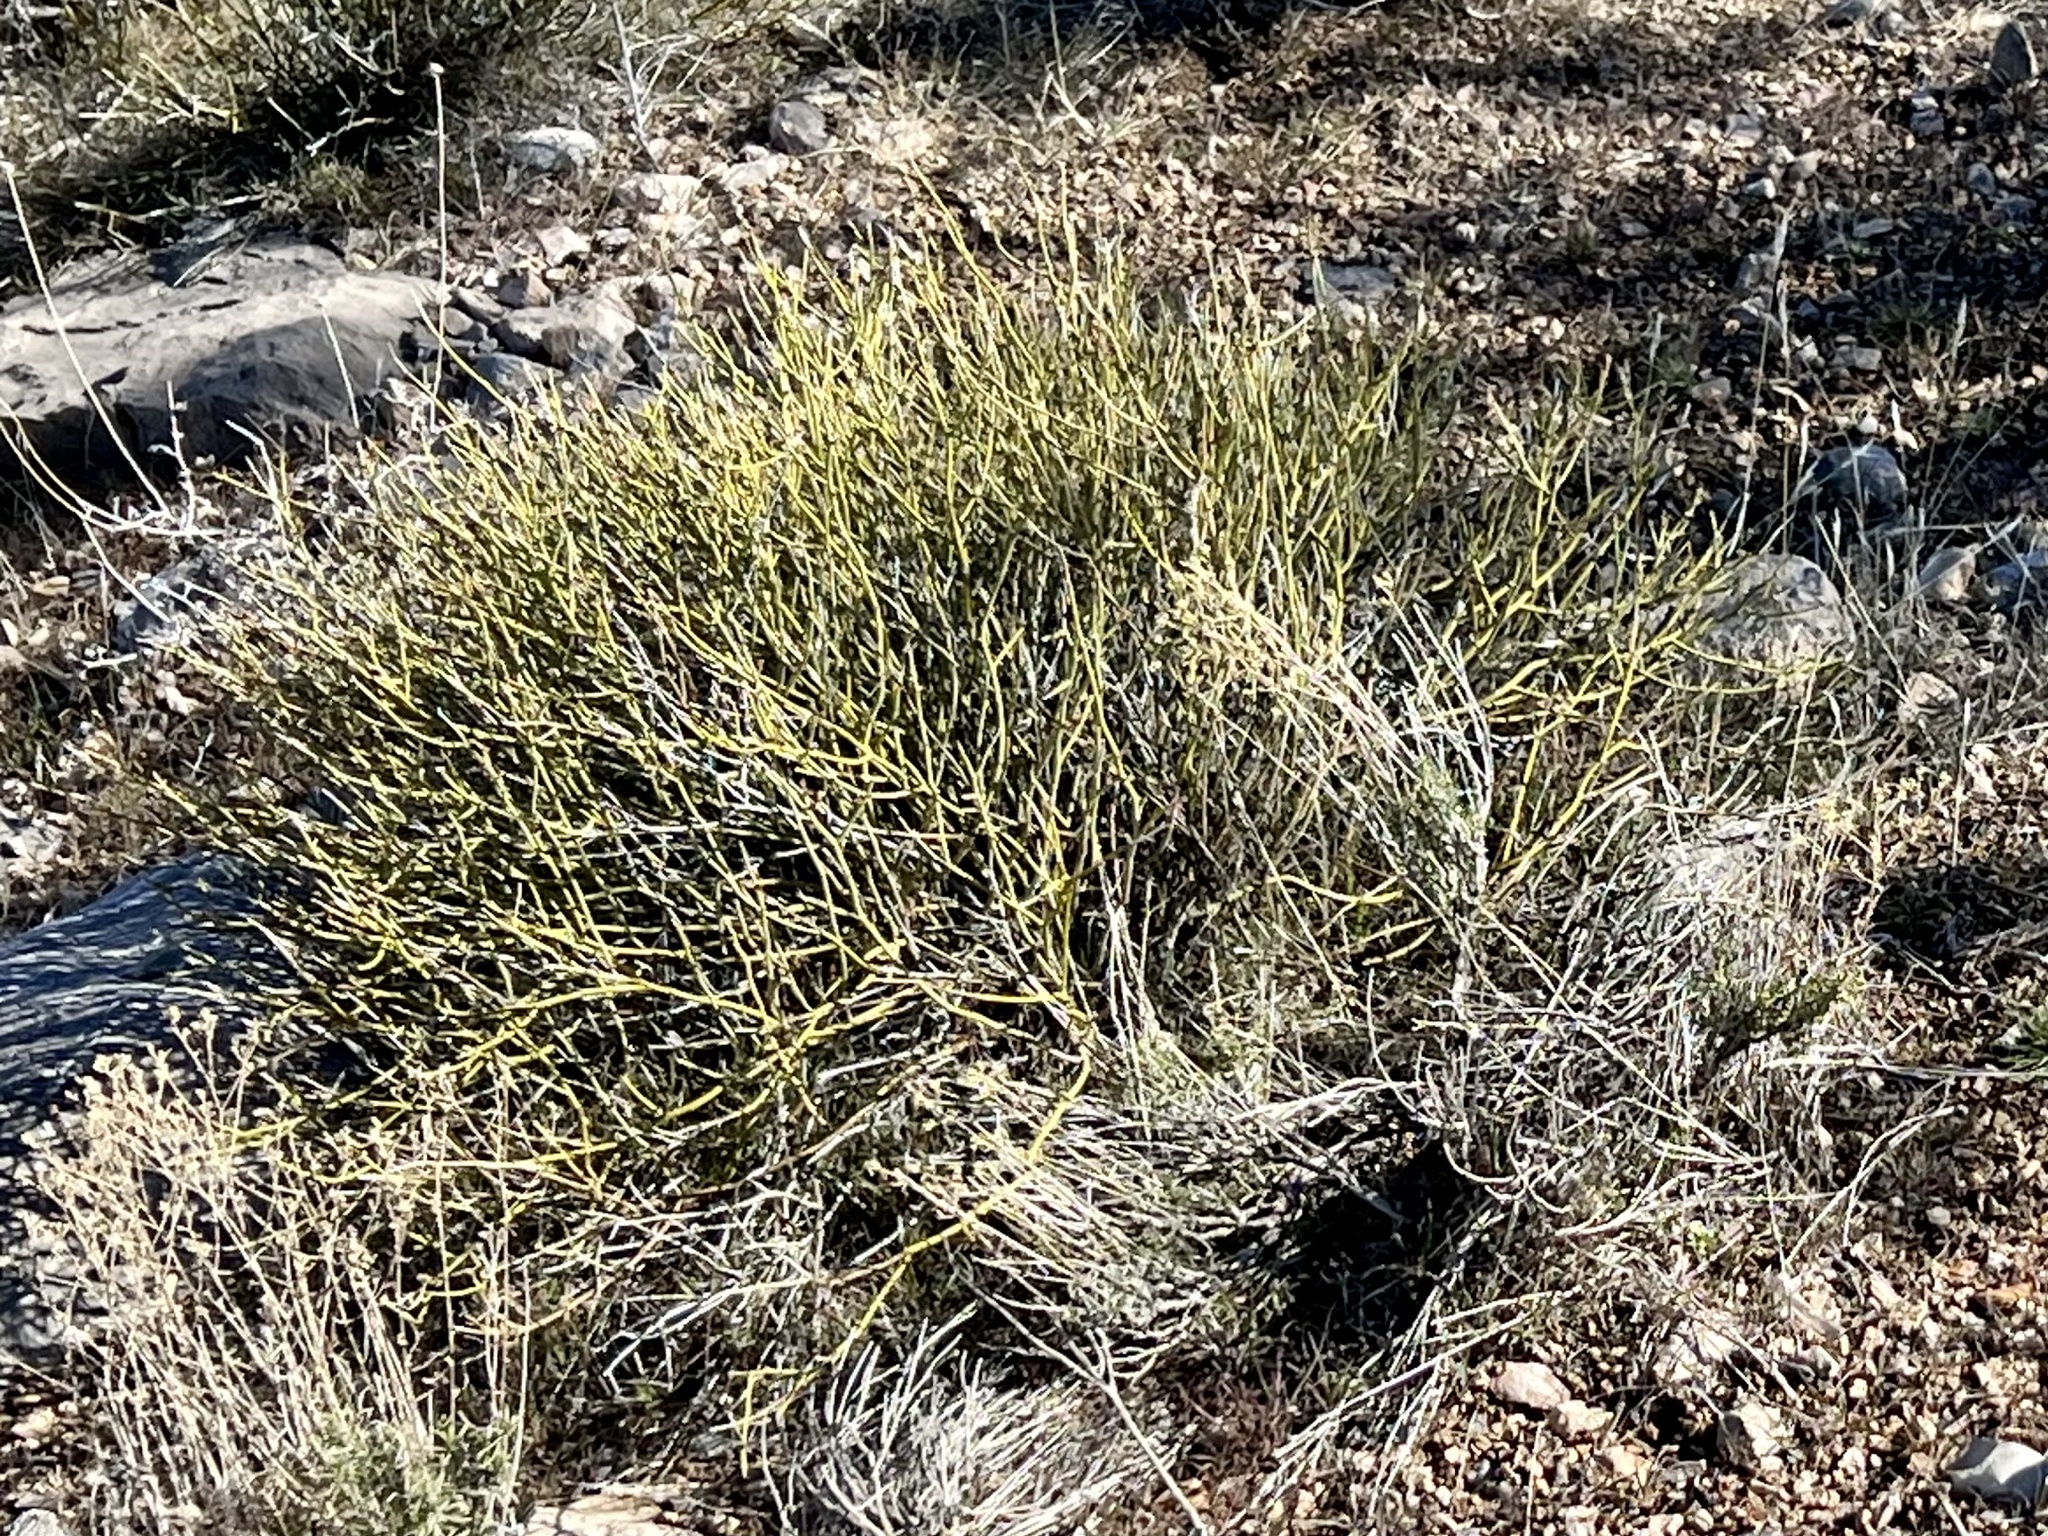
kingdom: Plantae
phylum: Tracheophyta
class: Magnoliopsida
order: Sapindales
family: Rutaceae
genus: Thamnosma
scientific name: Thamnosma montana
